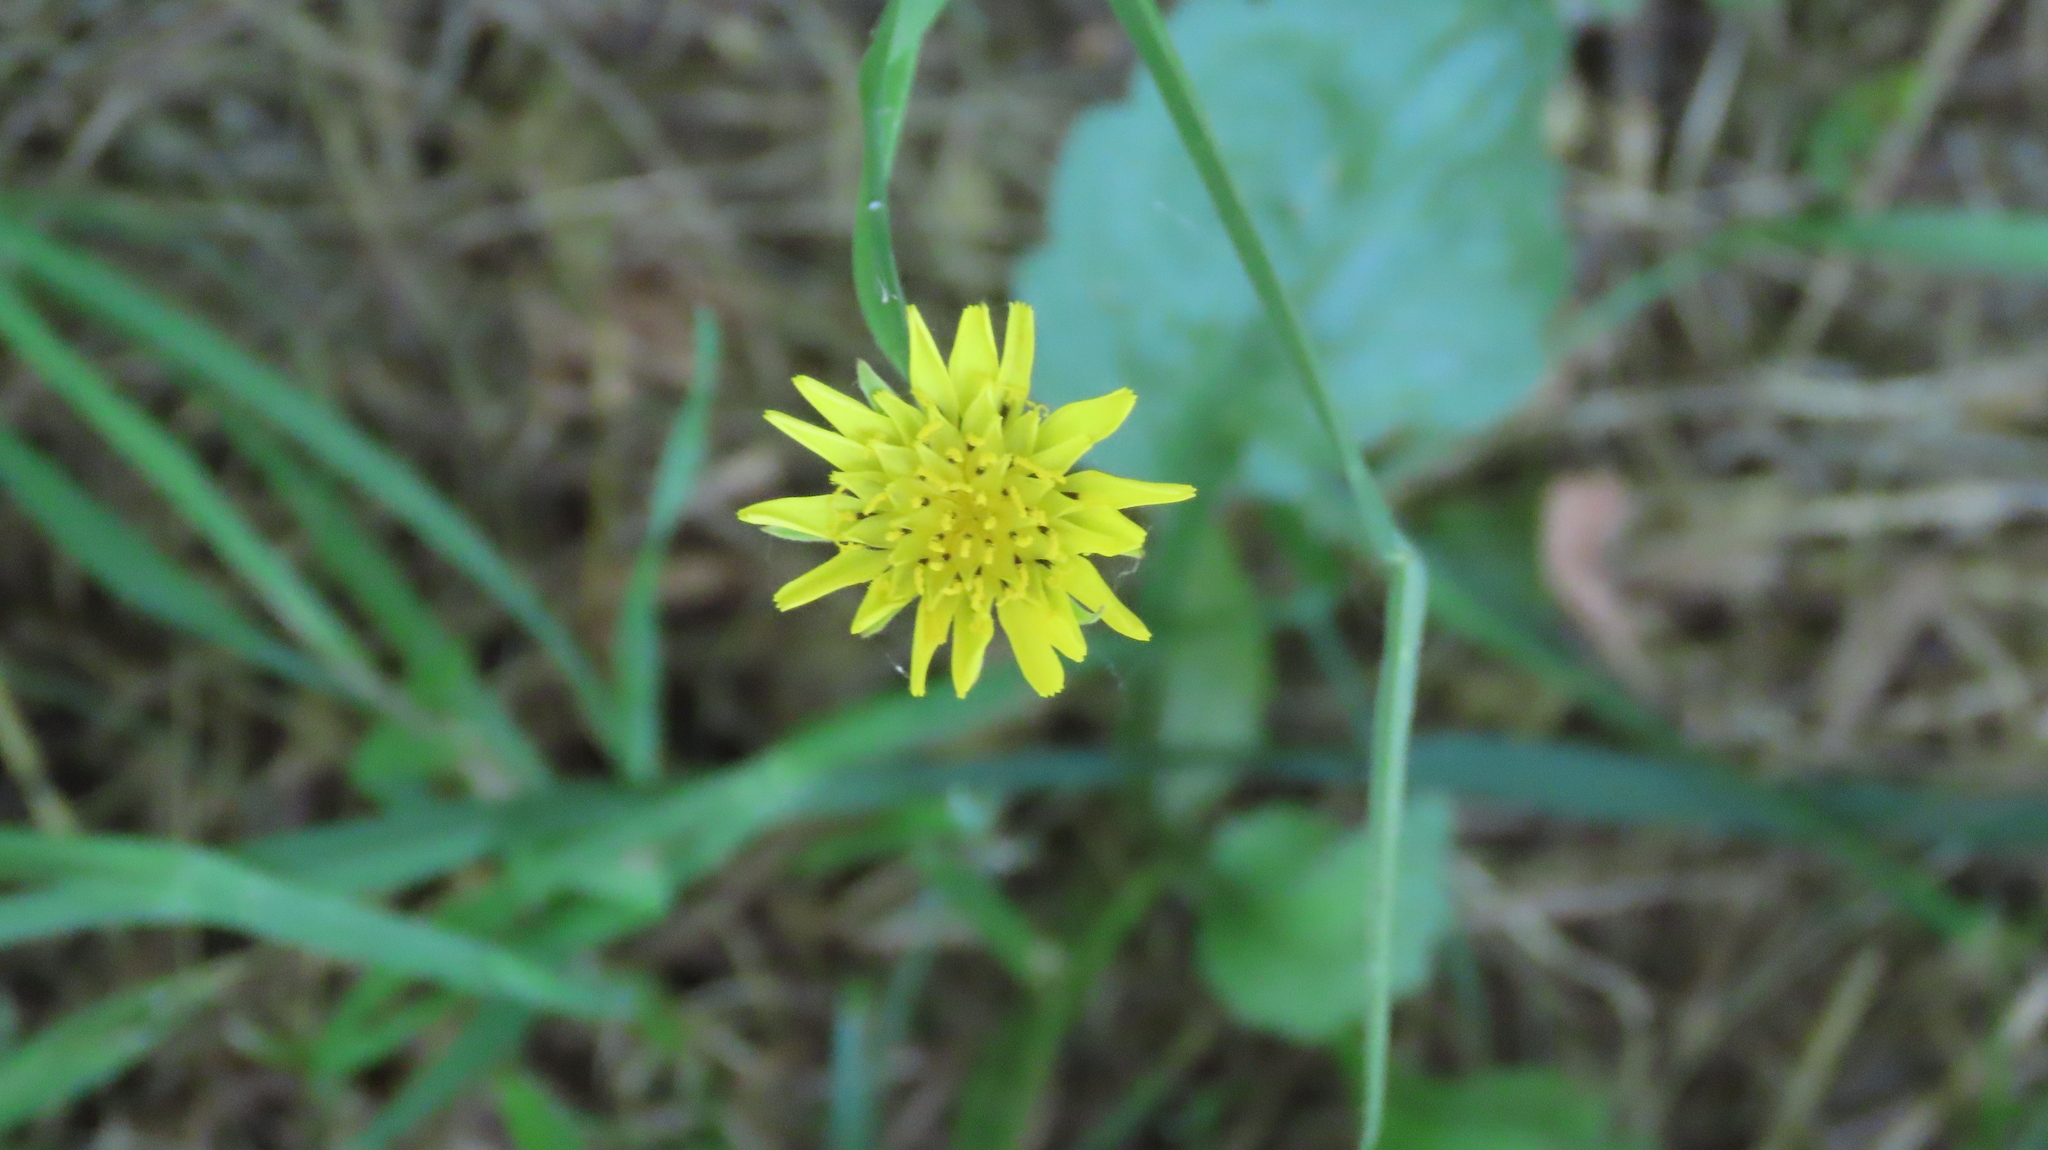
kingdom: Plantae
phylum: Tracheophyta
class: Magnoliopsida
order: Asterales
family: Asteraceae
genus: Tragopogon
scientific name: Tragopogon pratensis
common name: Goat's-beard
